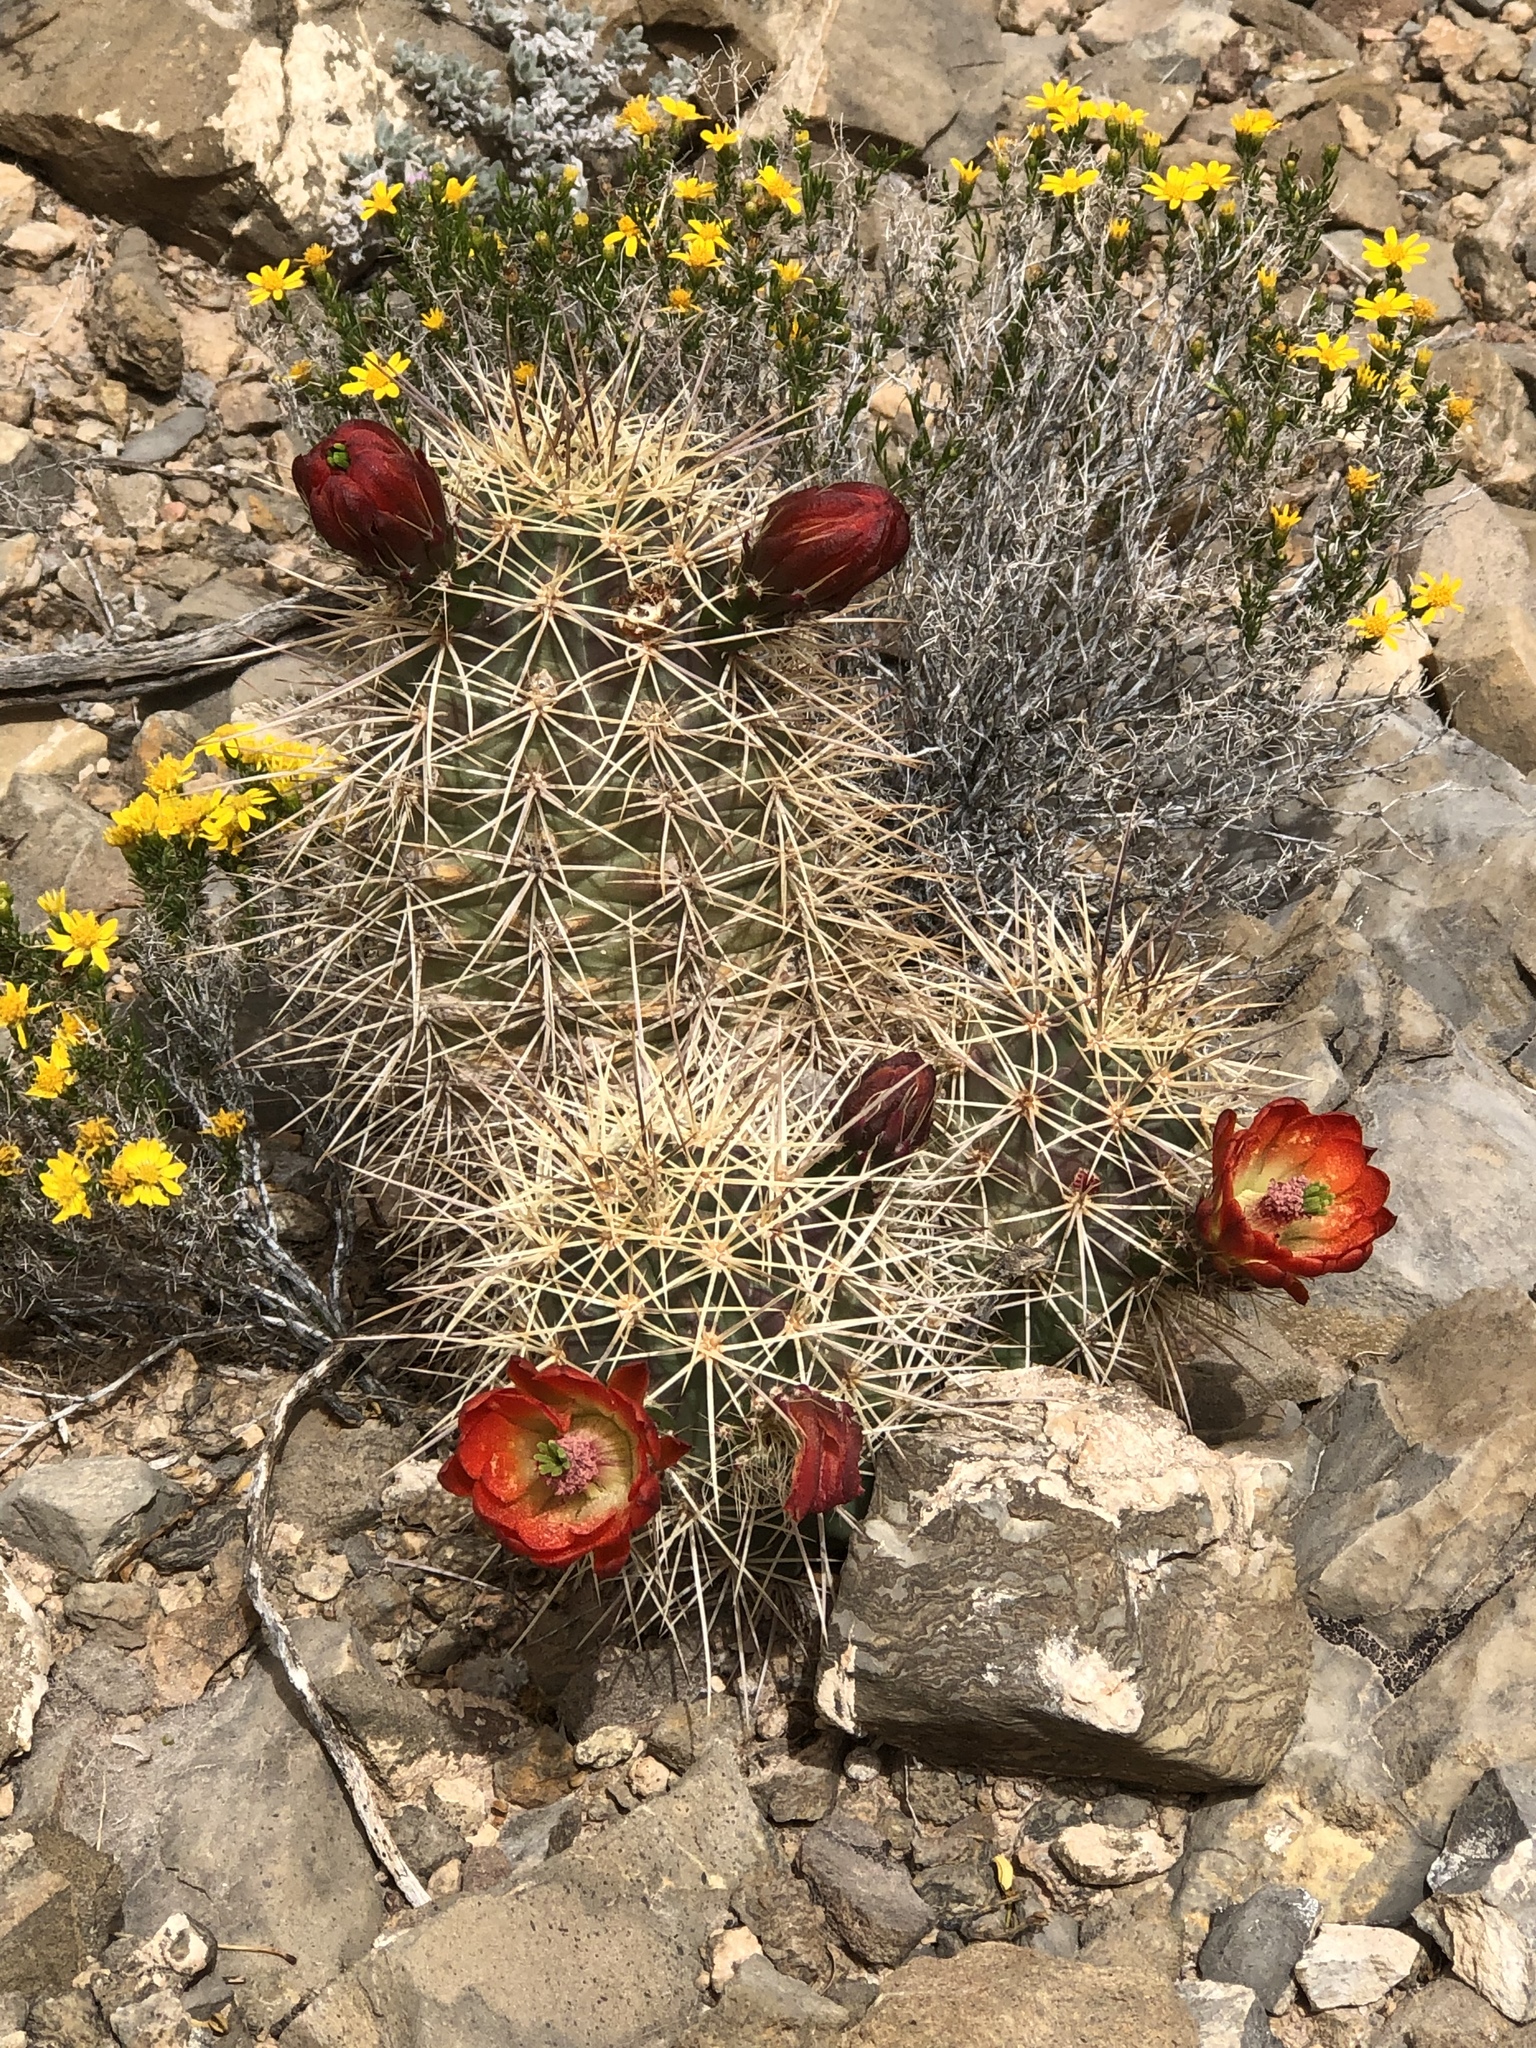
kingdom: Plantae
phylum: Tracheophyta
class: Magnoliopsida
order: Caryophyllales
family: Cactaceae
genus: Echinocereus
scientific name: Echinocereus coccineus
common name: Scarlet hedgehog cactus
